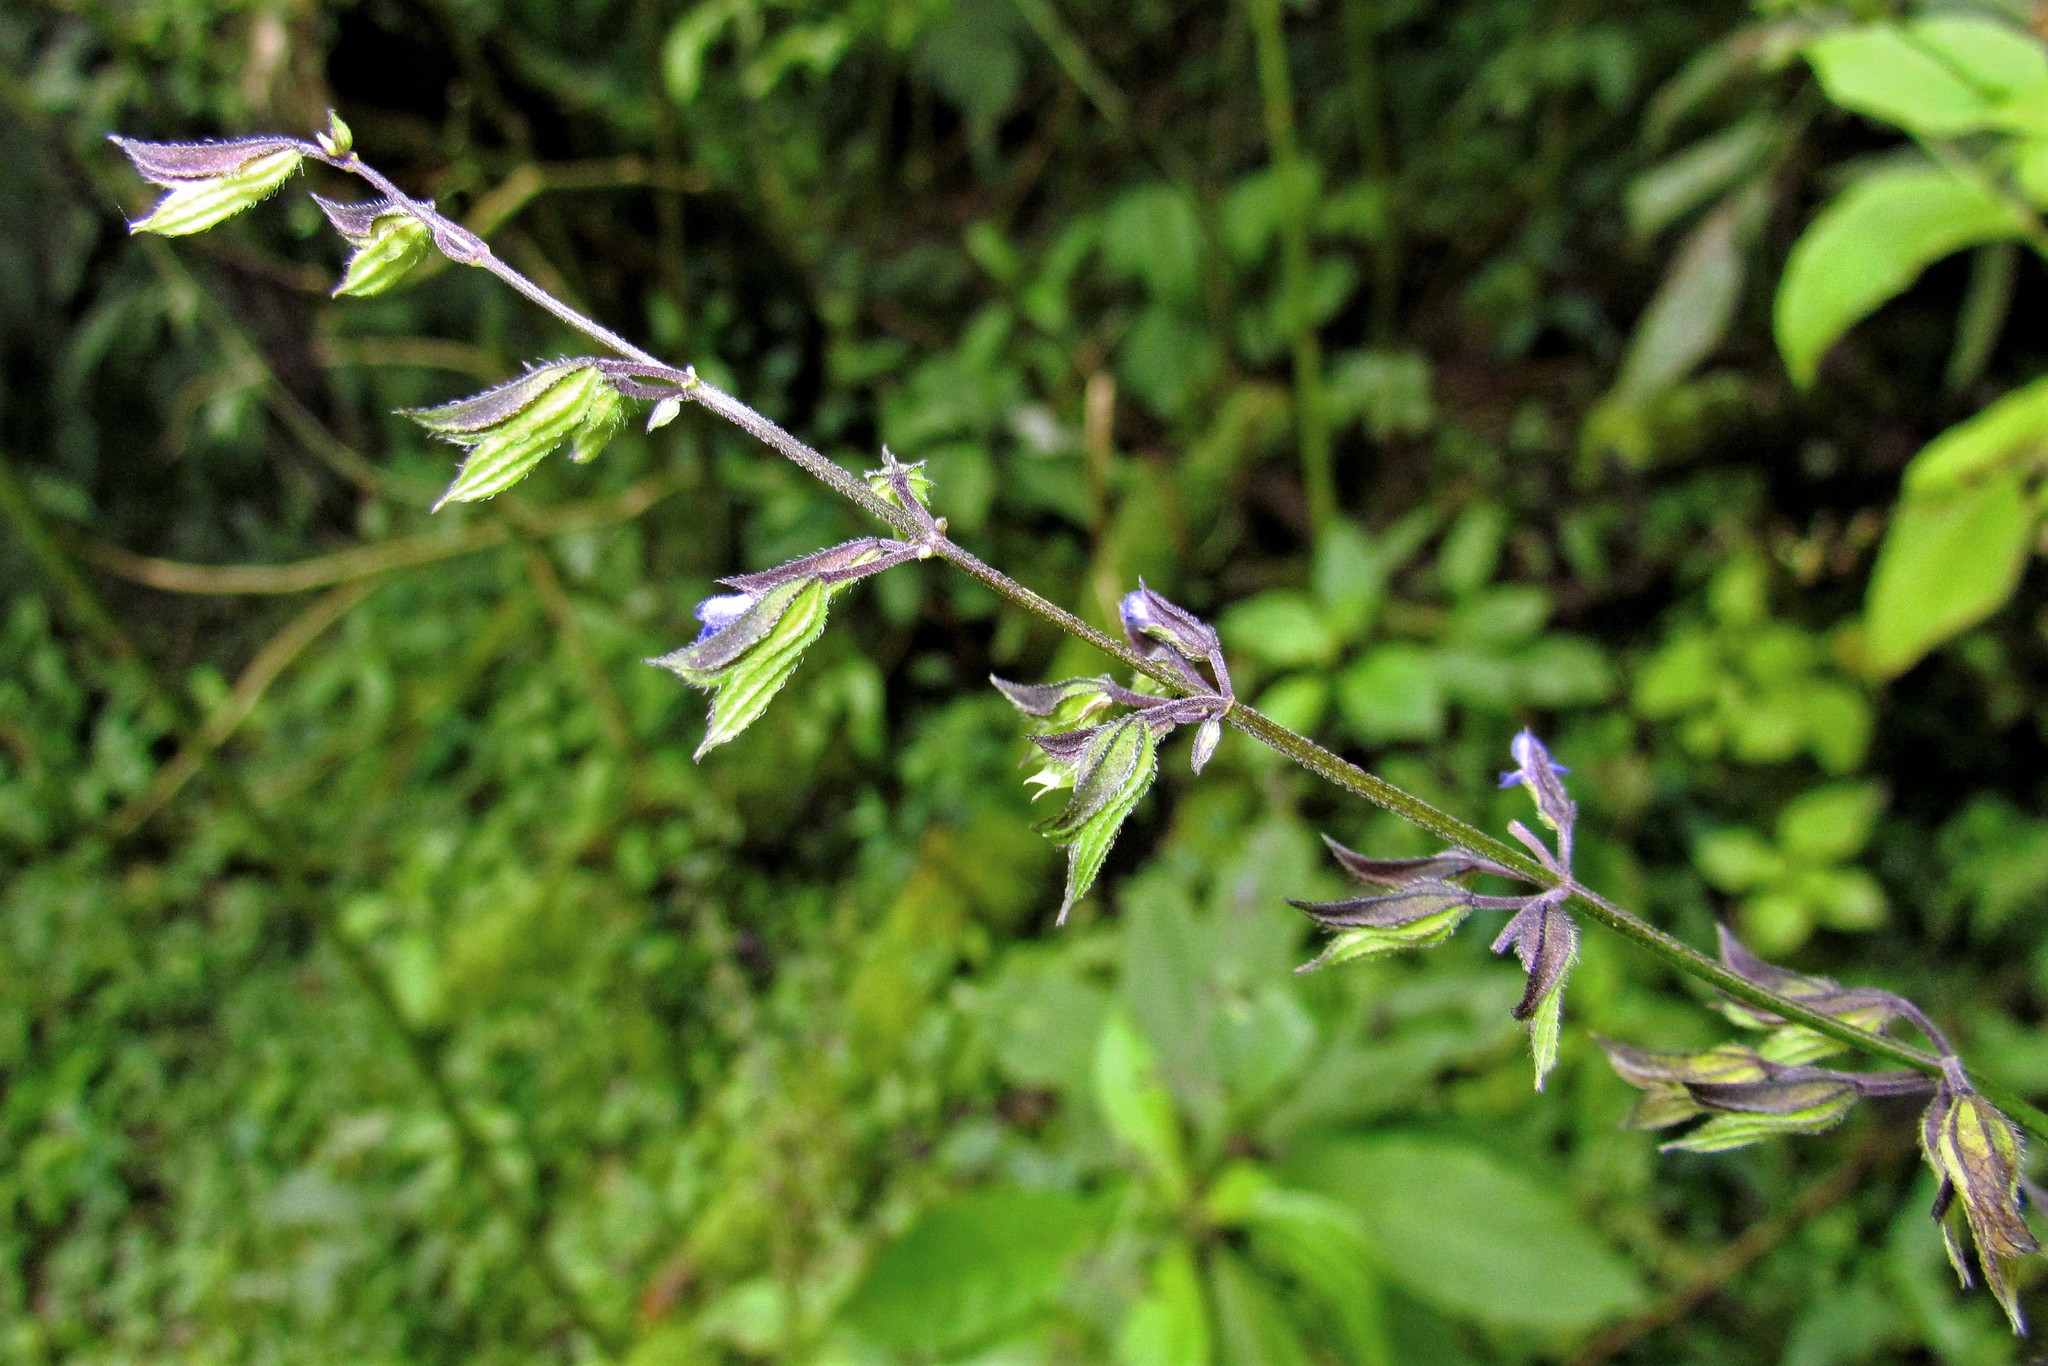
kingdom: Plantae
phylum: Tracheophyta
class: Magnoliopsida
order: Lamiales
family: Lamiaceae
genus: Salvia
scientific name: Salvia personata
